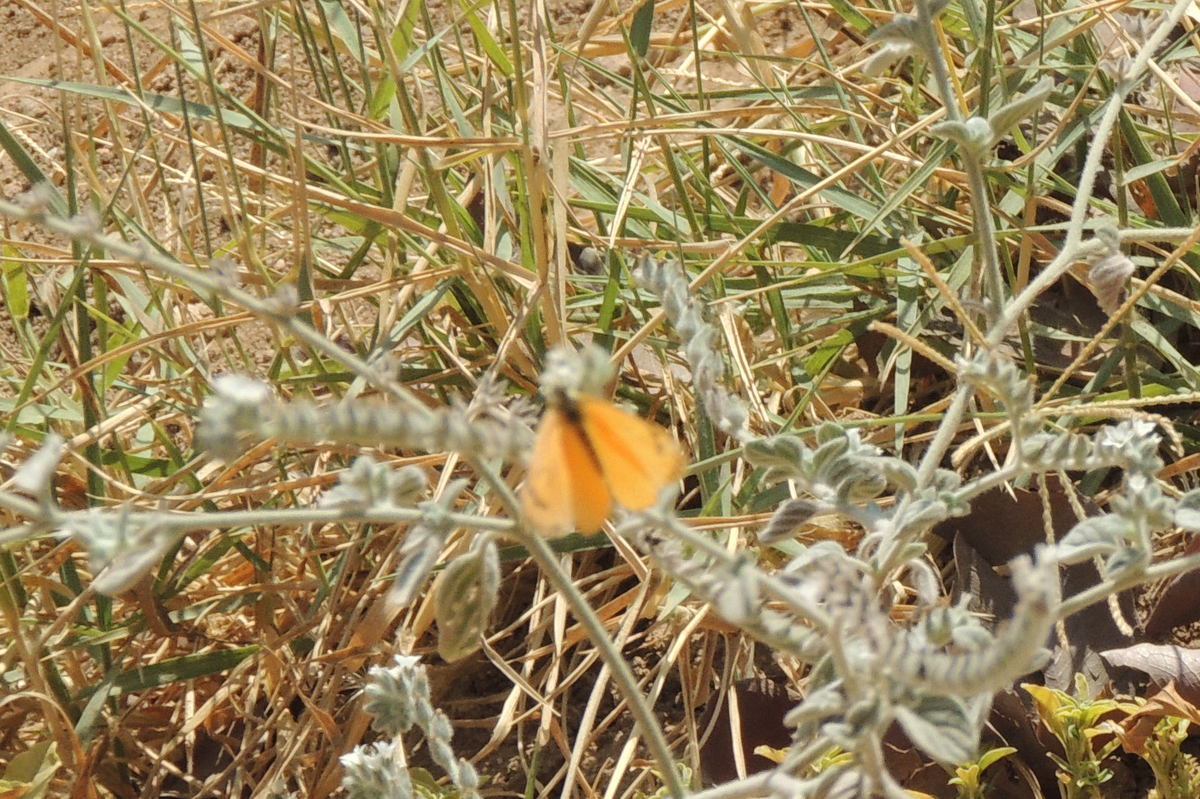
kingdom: Animalia
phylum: Arthropoda
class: Insecta
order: Lepidoptera
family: Pieridae
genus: Colotis
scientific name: Colotis fausta
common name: Large salmon arab
